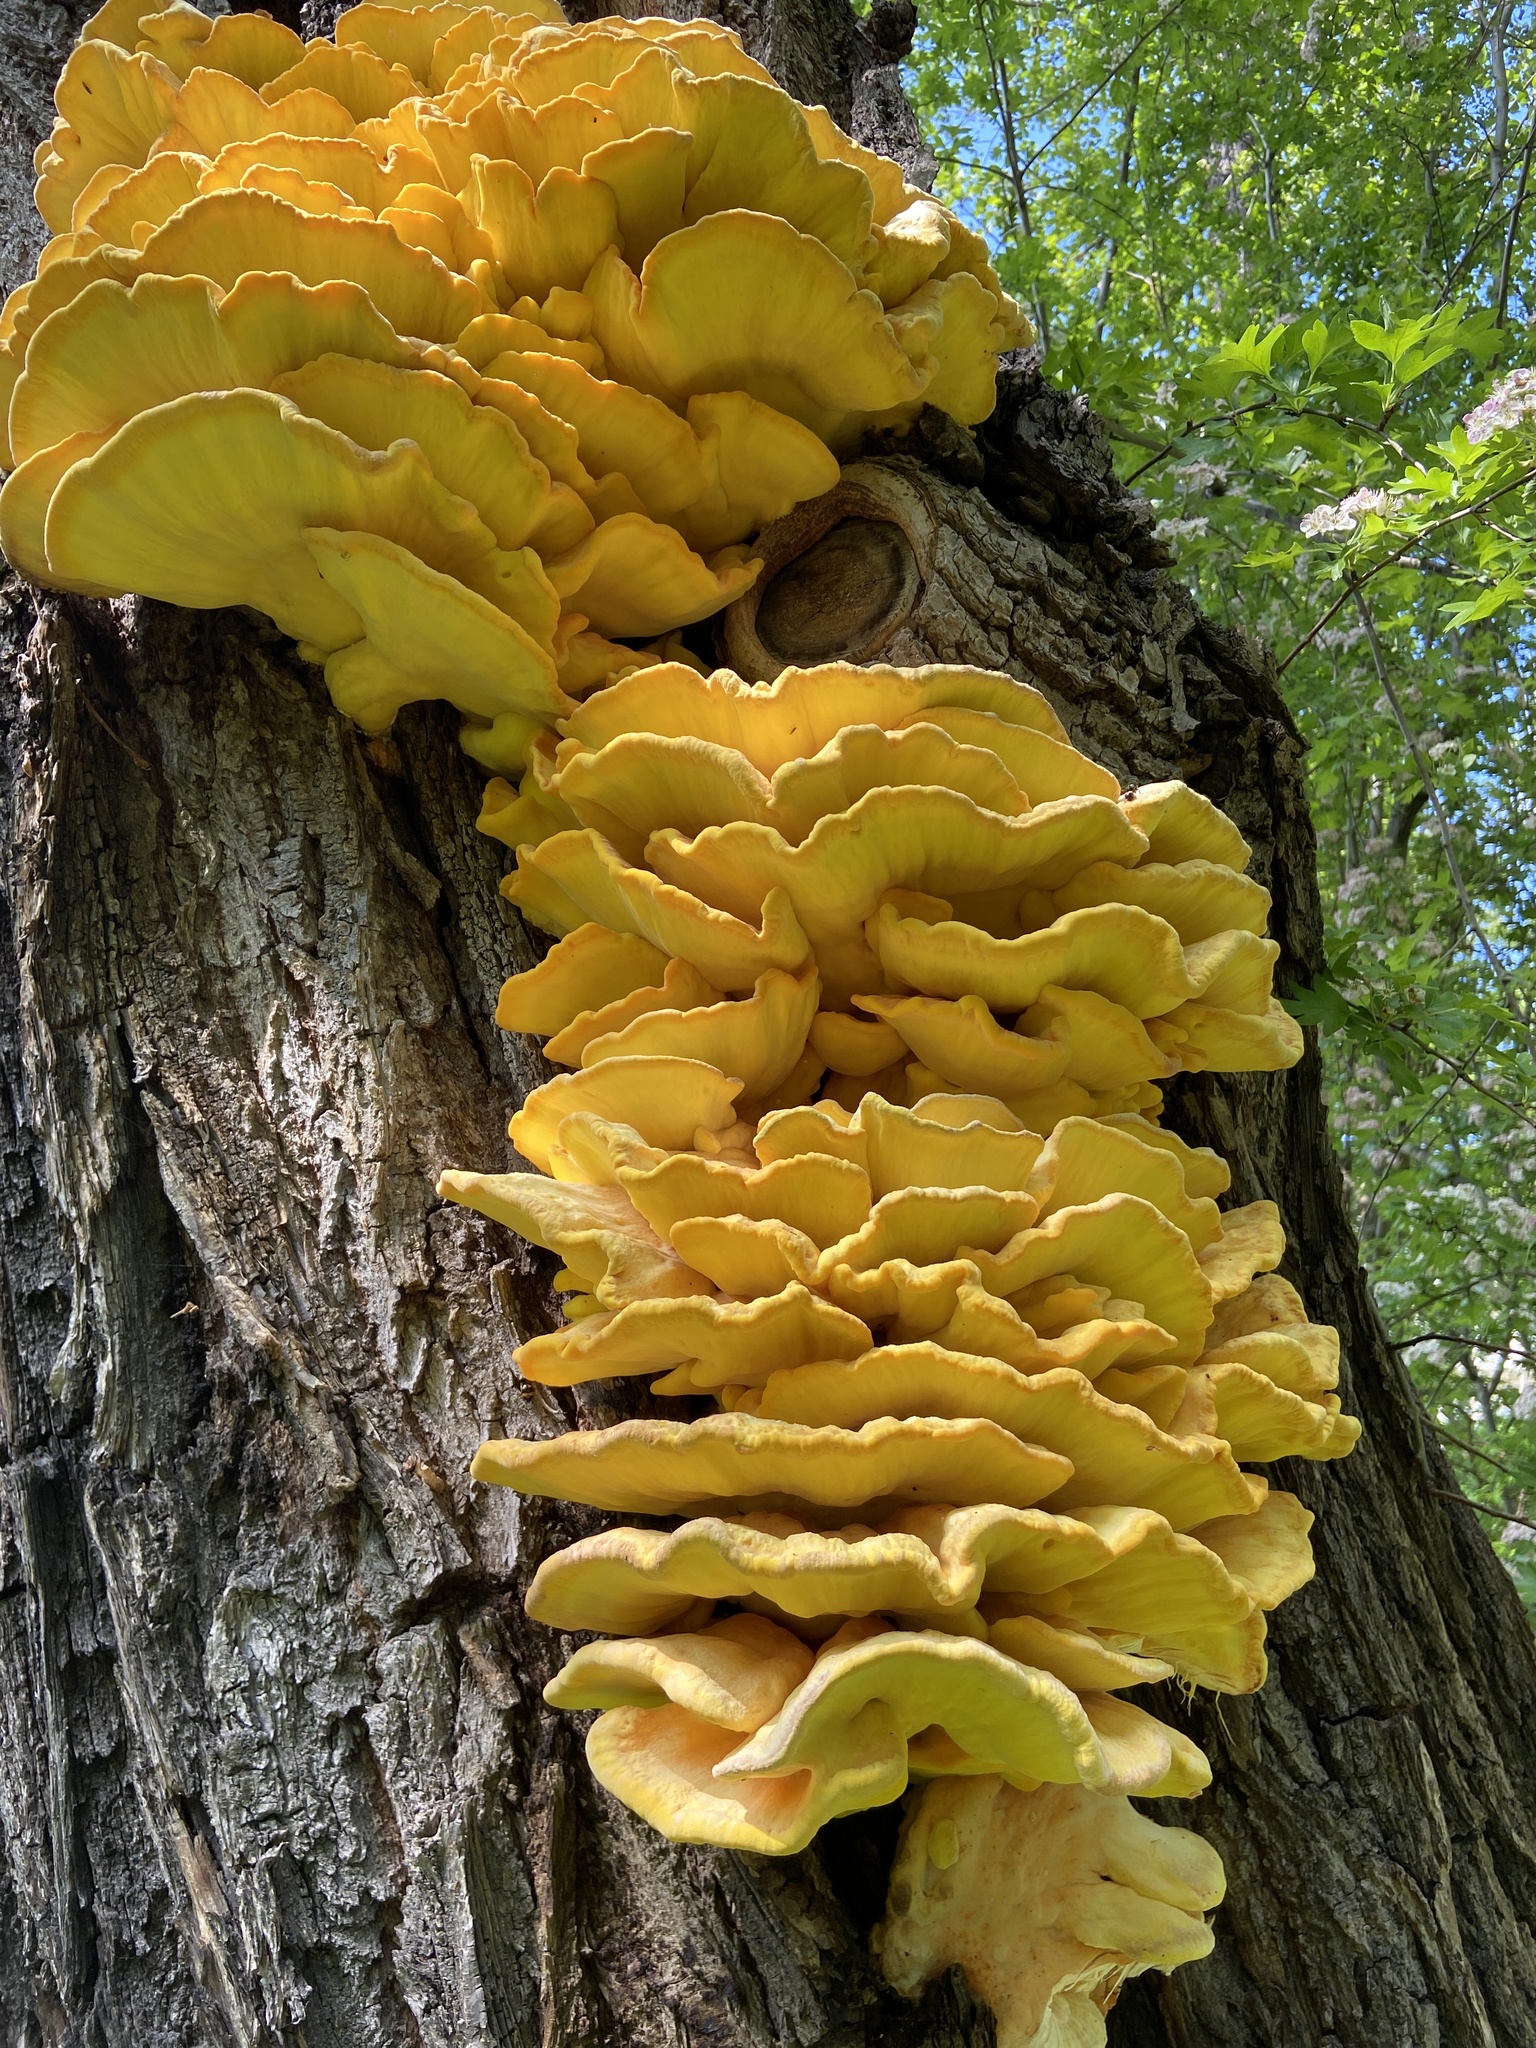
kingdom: Fungi
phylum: Basidiomycota
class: Agaricomycetes
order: Polyporales
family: Laetiporaceae
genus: Laetiporus
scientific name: Laetiporus sulphureus
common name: Chicken of the woods
